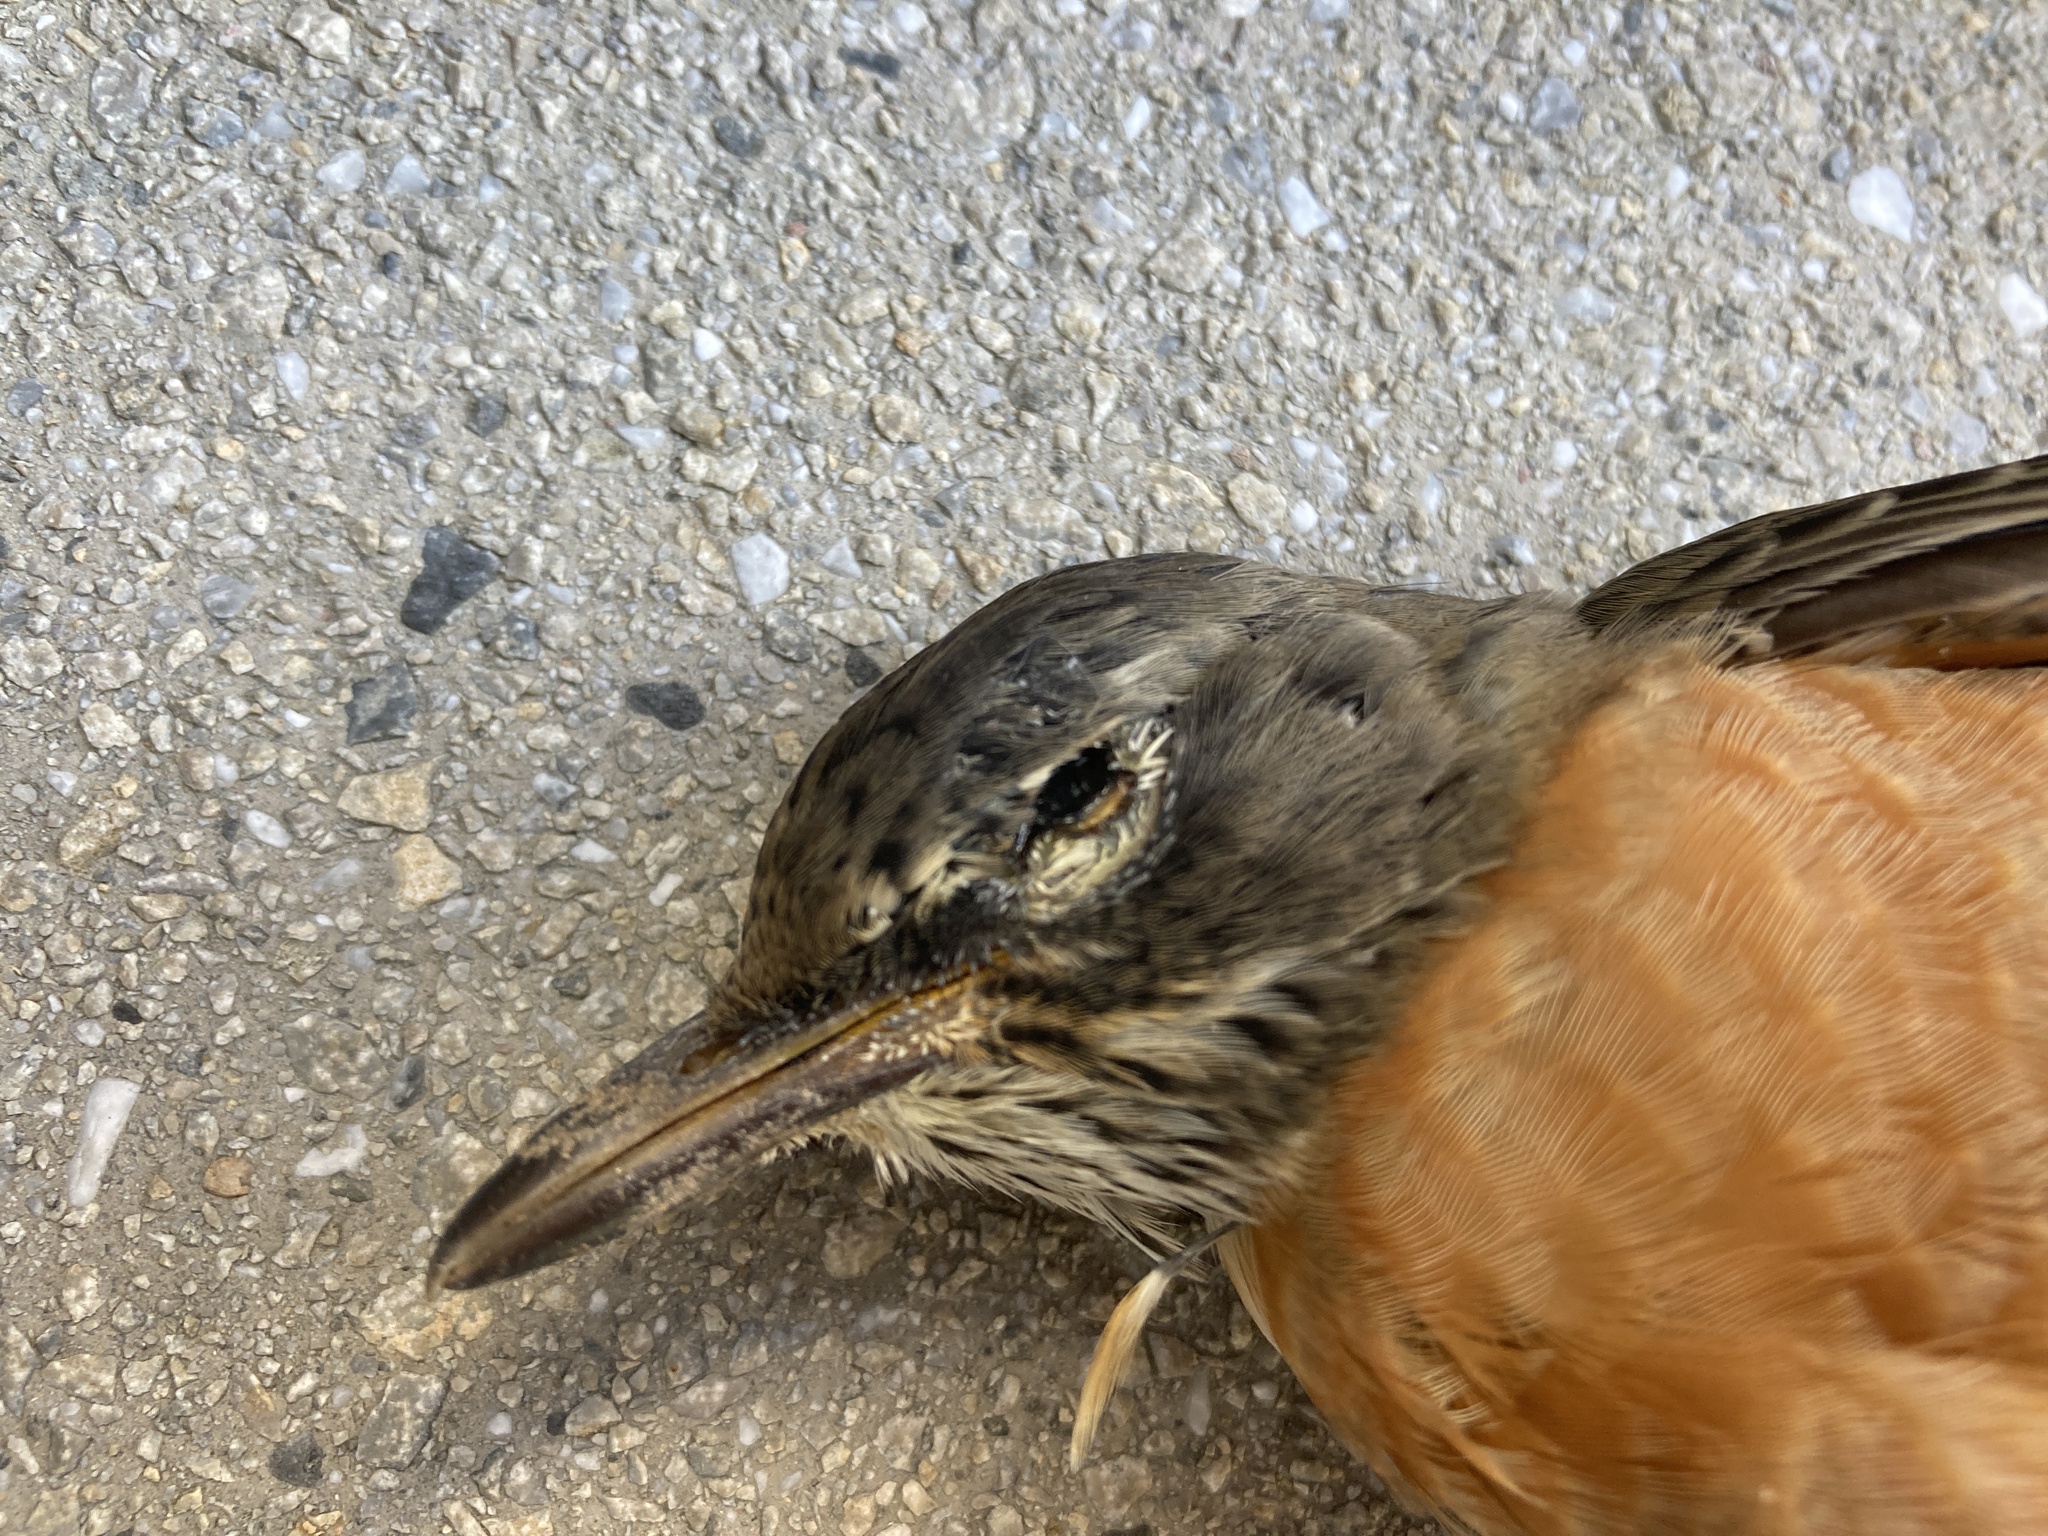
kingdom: Animalia
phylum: Chordata
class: Aves
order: Passeriformes
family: Turdidae
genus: Turdus
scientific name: Turdus migratorius
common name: American robin
